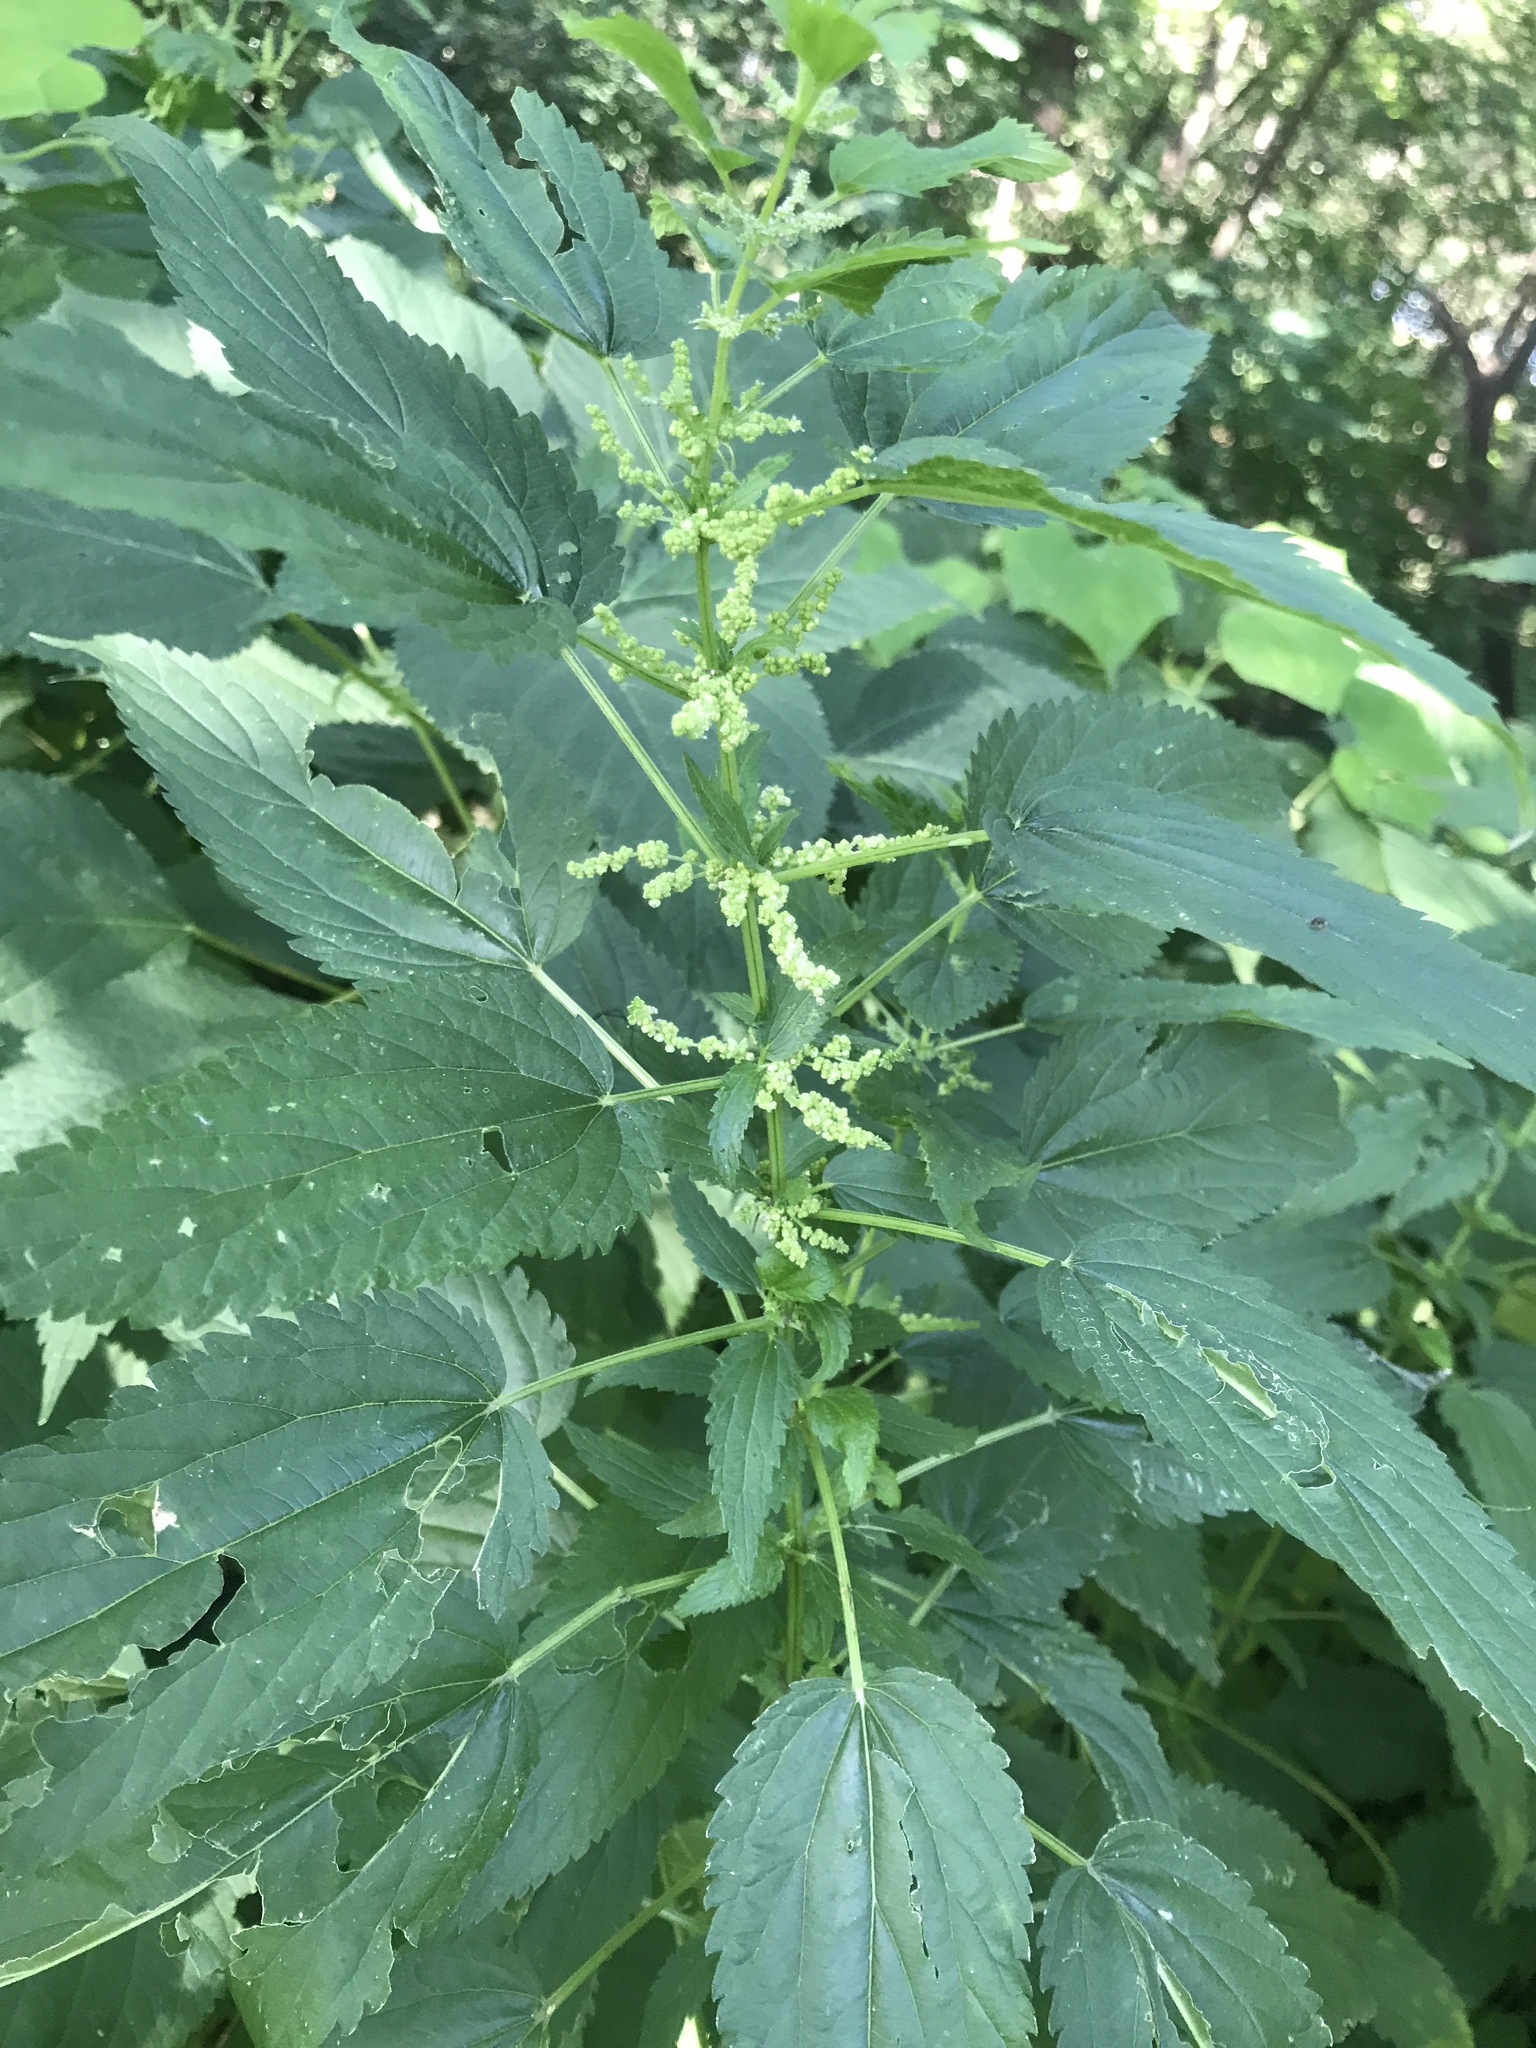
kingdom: Plantae
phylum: Tracheophyta
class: Magnoliopsida
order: Rosales
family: Urticaceae
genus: Urtica
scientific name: Urtica dioica
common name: Common nettle
